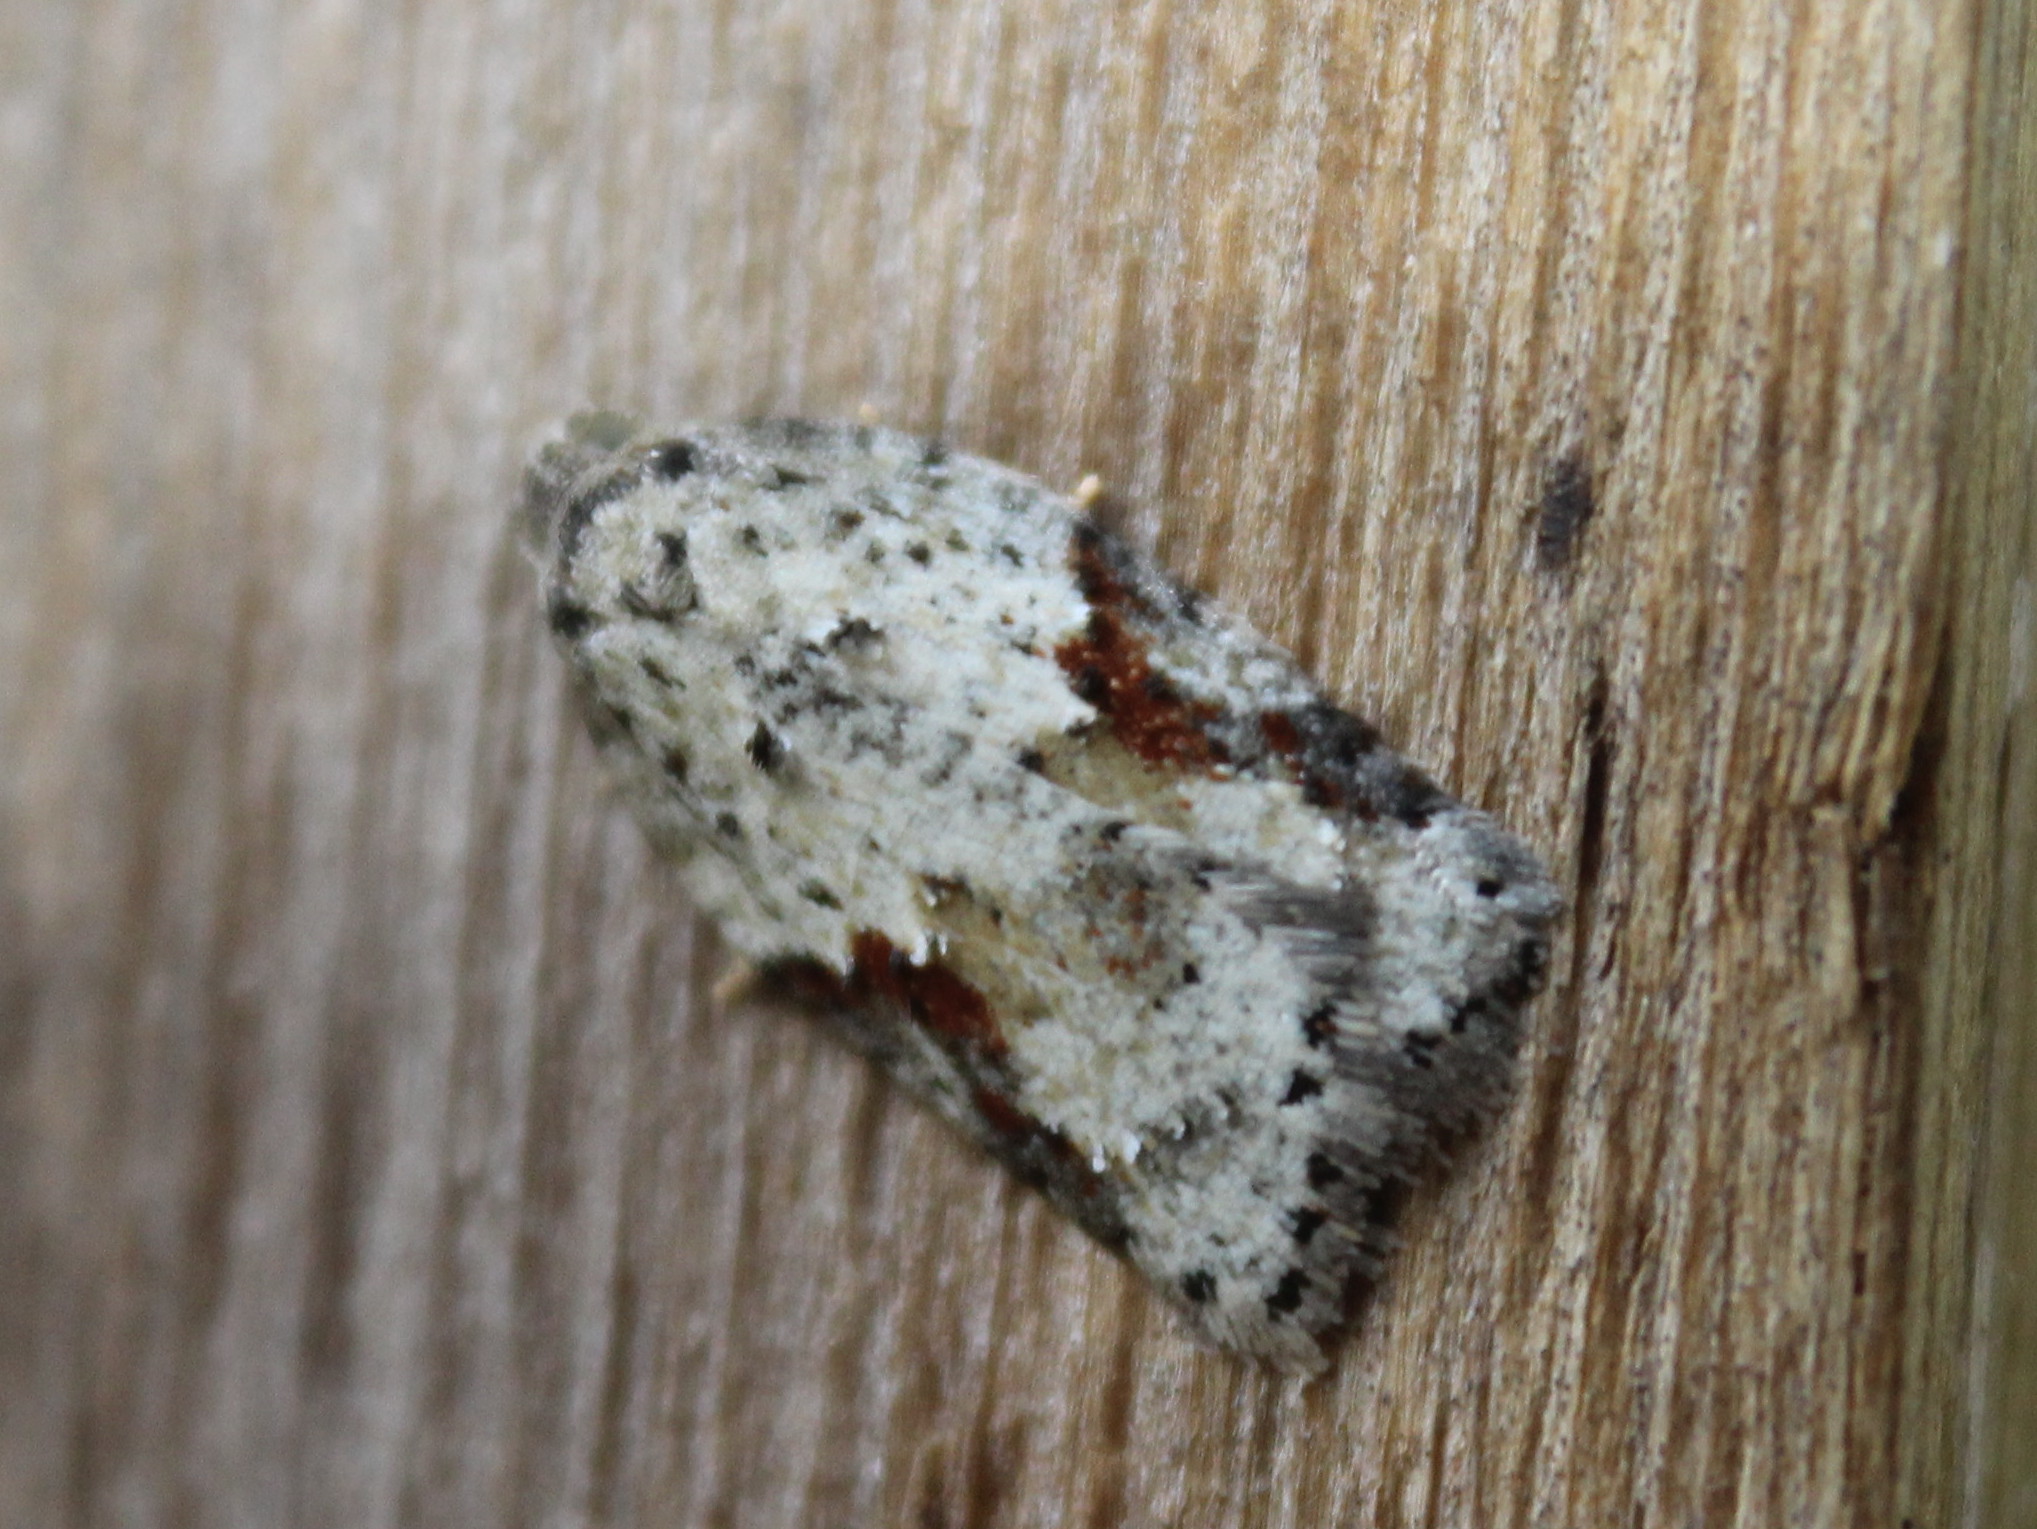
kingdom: Animalia
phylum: Arthropoda
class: Insecta
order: Lepidoptera
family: Tortricidae
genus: Acleris
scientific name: Acleris cornana
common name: Dogwood leafroller
